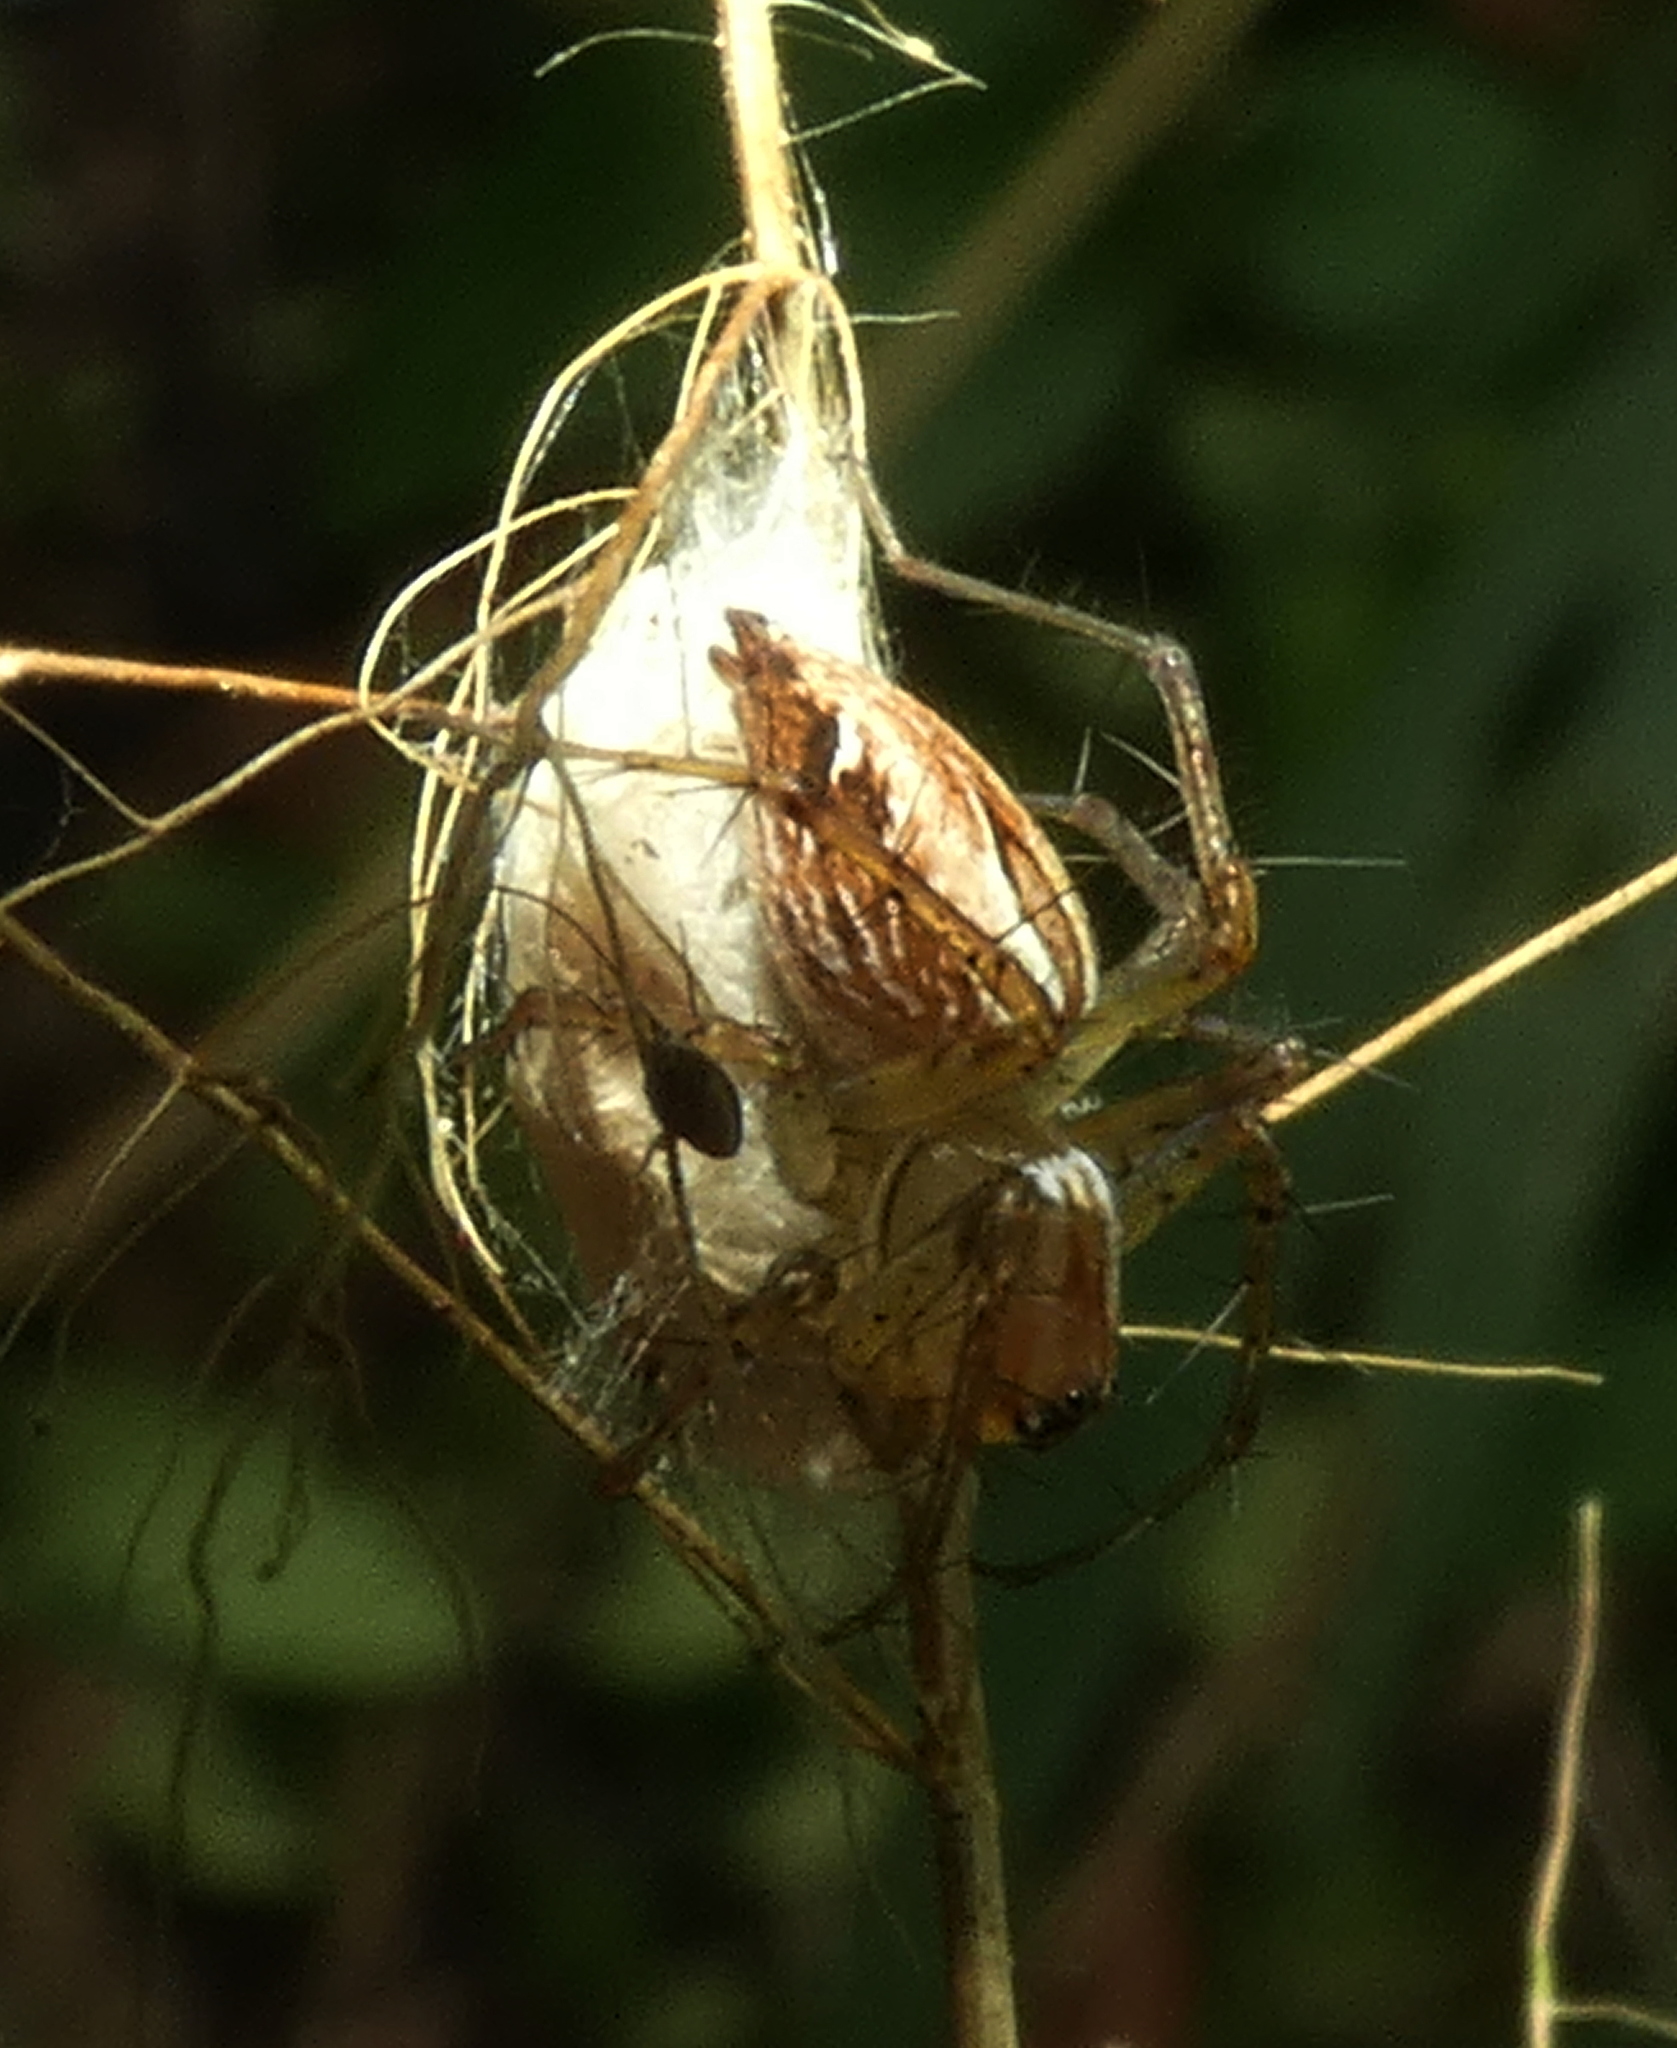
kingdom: Animalia
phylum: Arthropoda
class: Arachnida
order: Araneae
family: Oxyopidae
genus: Oxyopes
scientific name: Oxyopes salticus
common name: Lynx spiders
